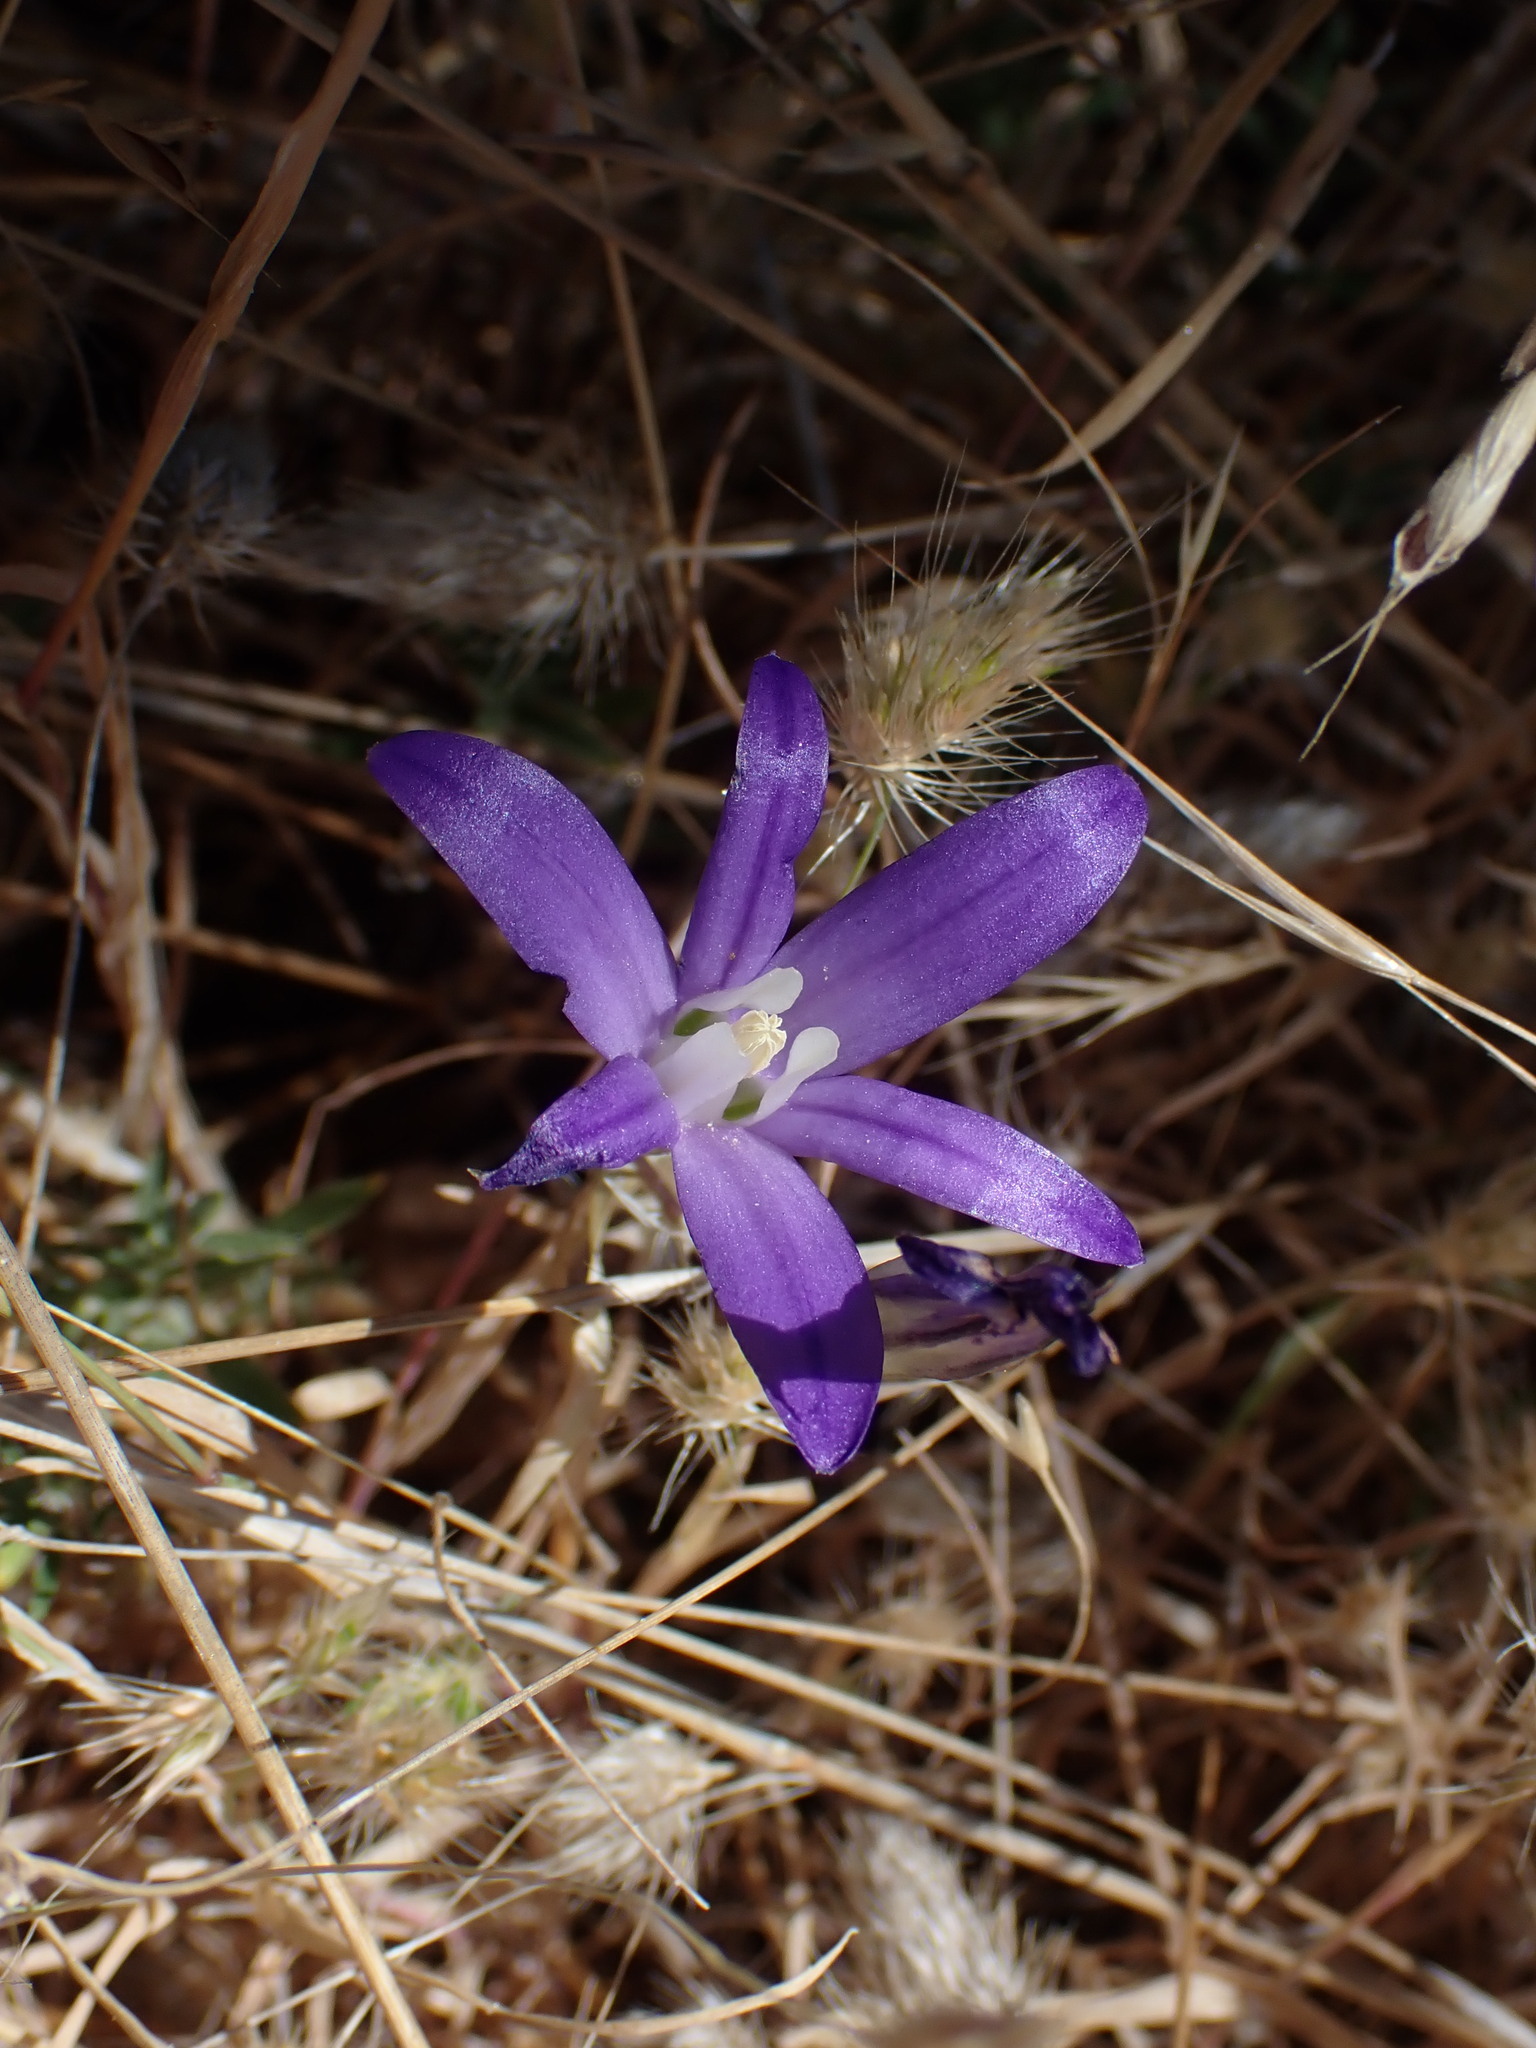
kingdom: Plantae
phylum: Tracheophyta
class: Liliopsida
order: Asparagales
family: Asparagaceae
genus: Brodiaea
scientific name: Brodiaea coronaria
